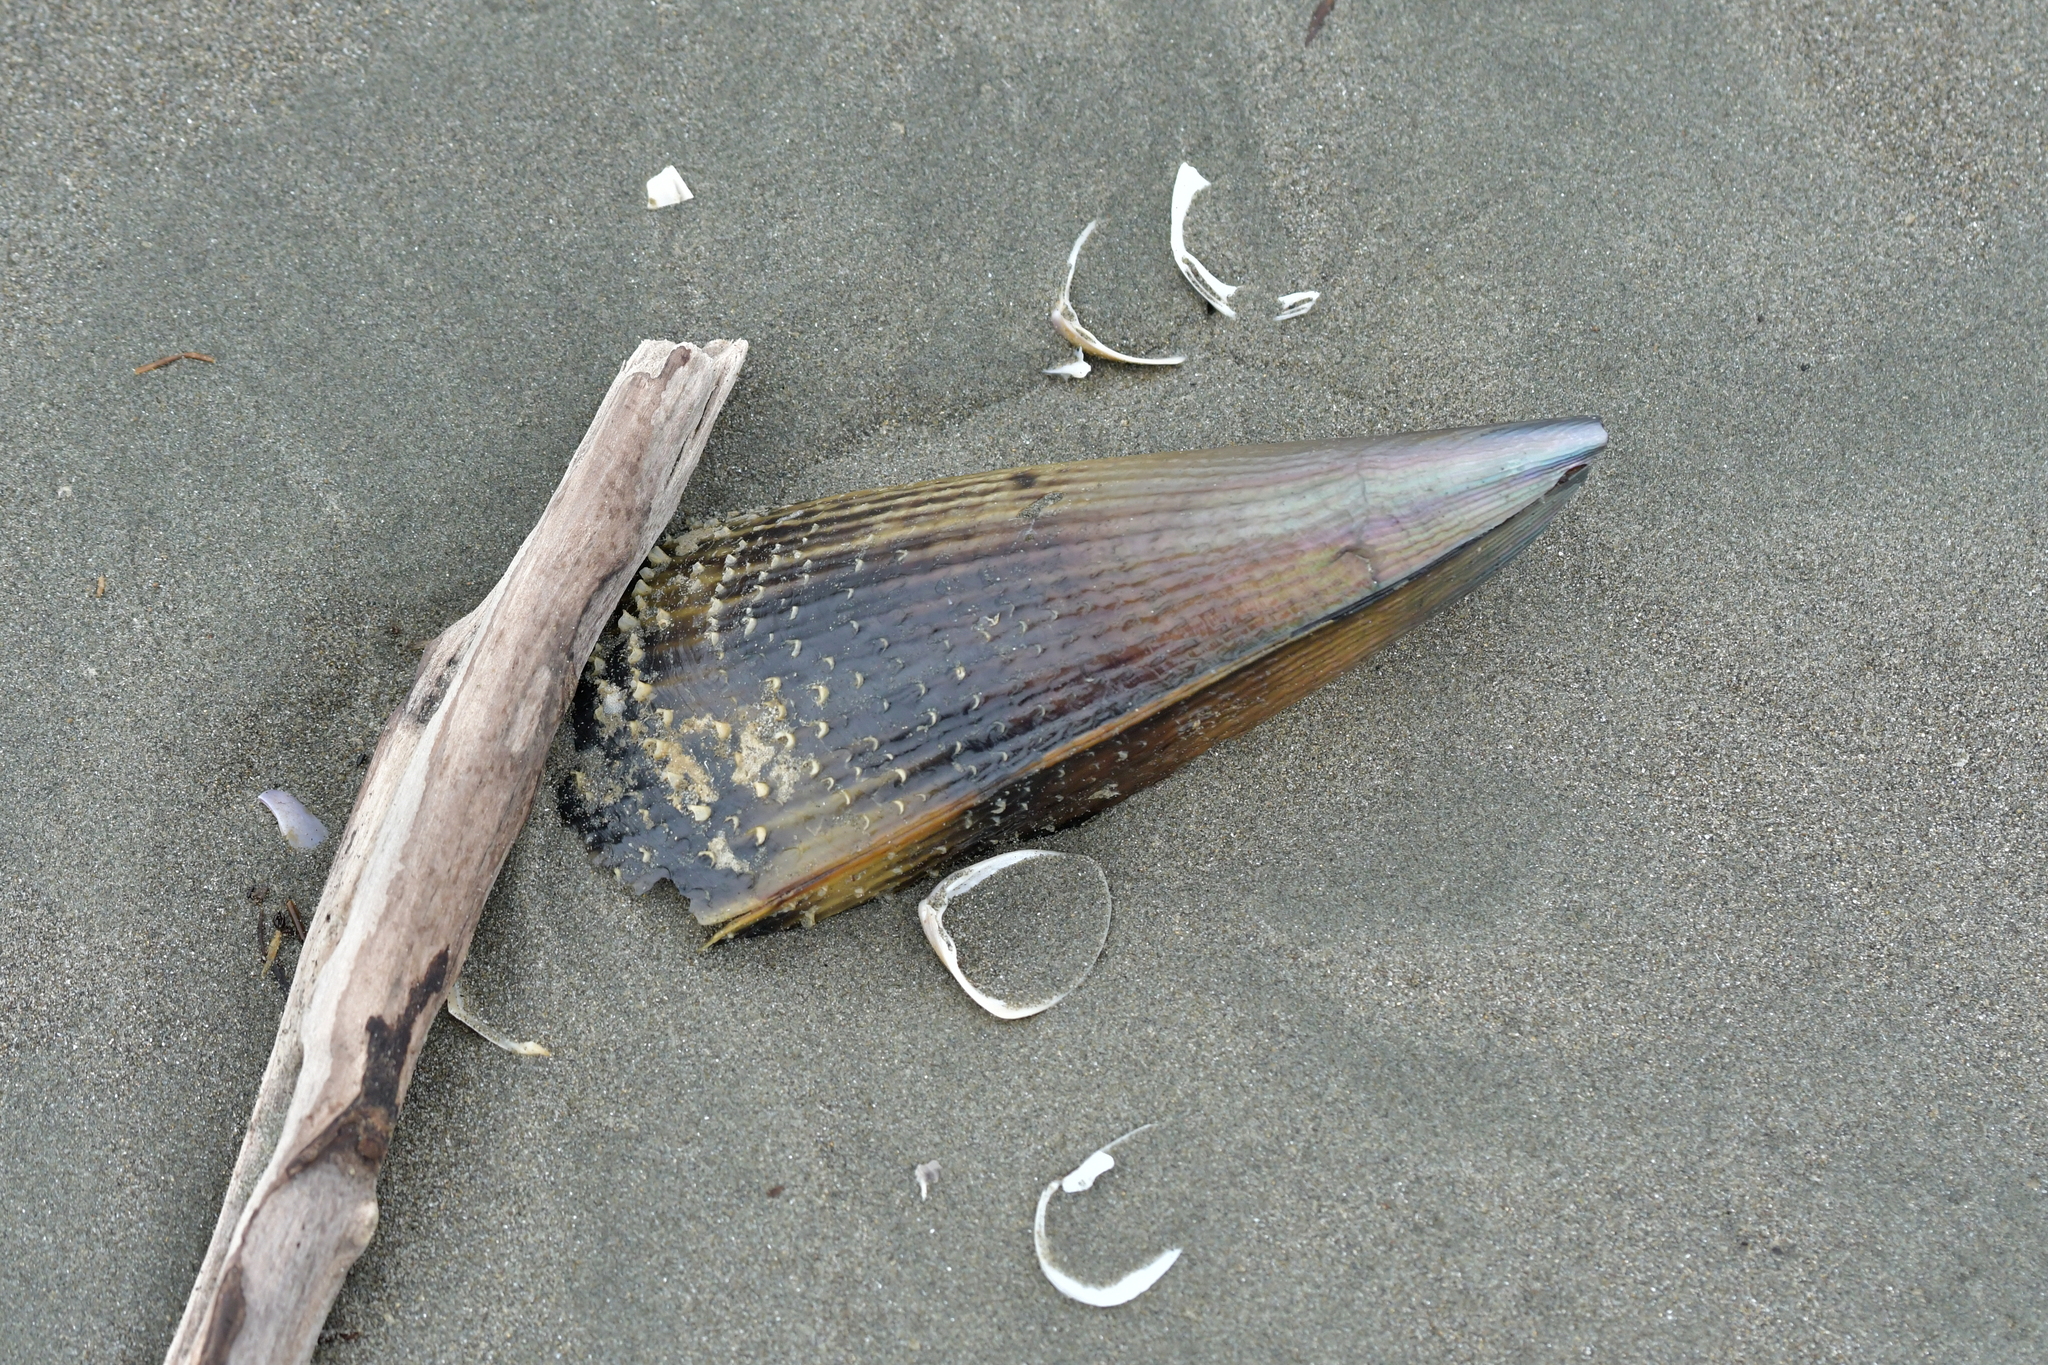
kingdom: Animalia
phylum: Mollusca
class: Bivalvia
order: Ostreida
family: Pinnidae
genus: Atrina
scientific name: Atrina zelandica
